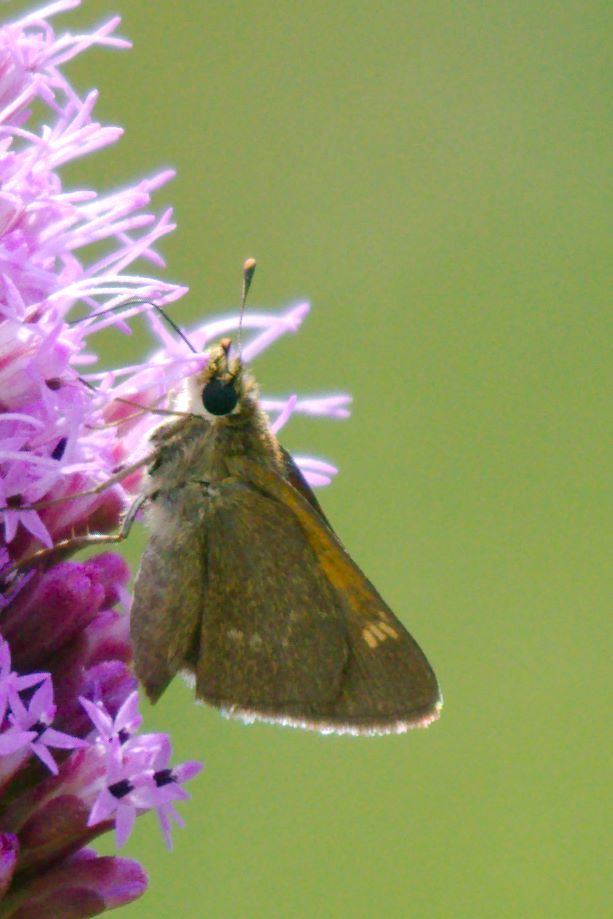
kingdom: Animalia
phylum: Arthropoda
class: Insecta
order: Lepidoptera
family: Hesperiidae
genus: Polites
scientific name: Polites themistocles
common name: Tawny-edged skipper
